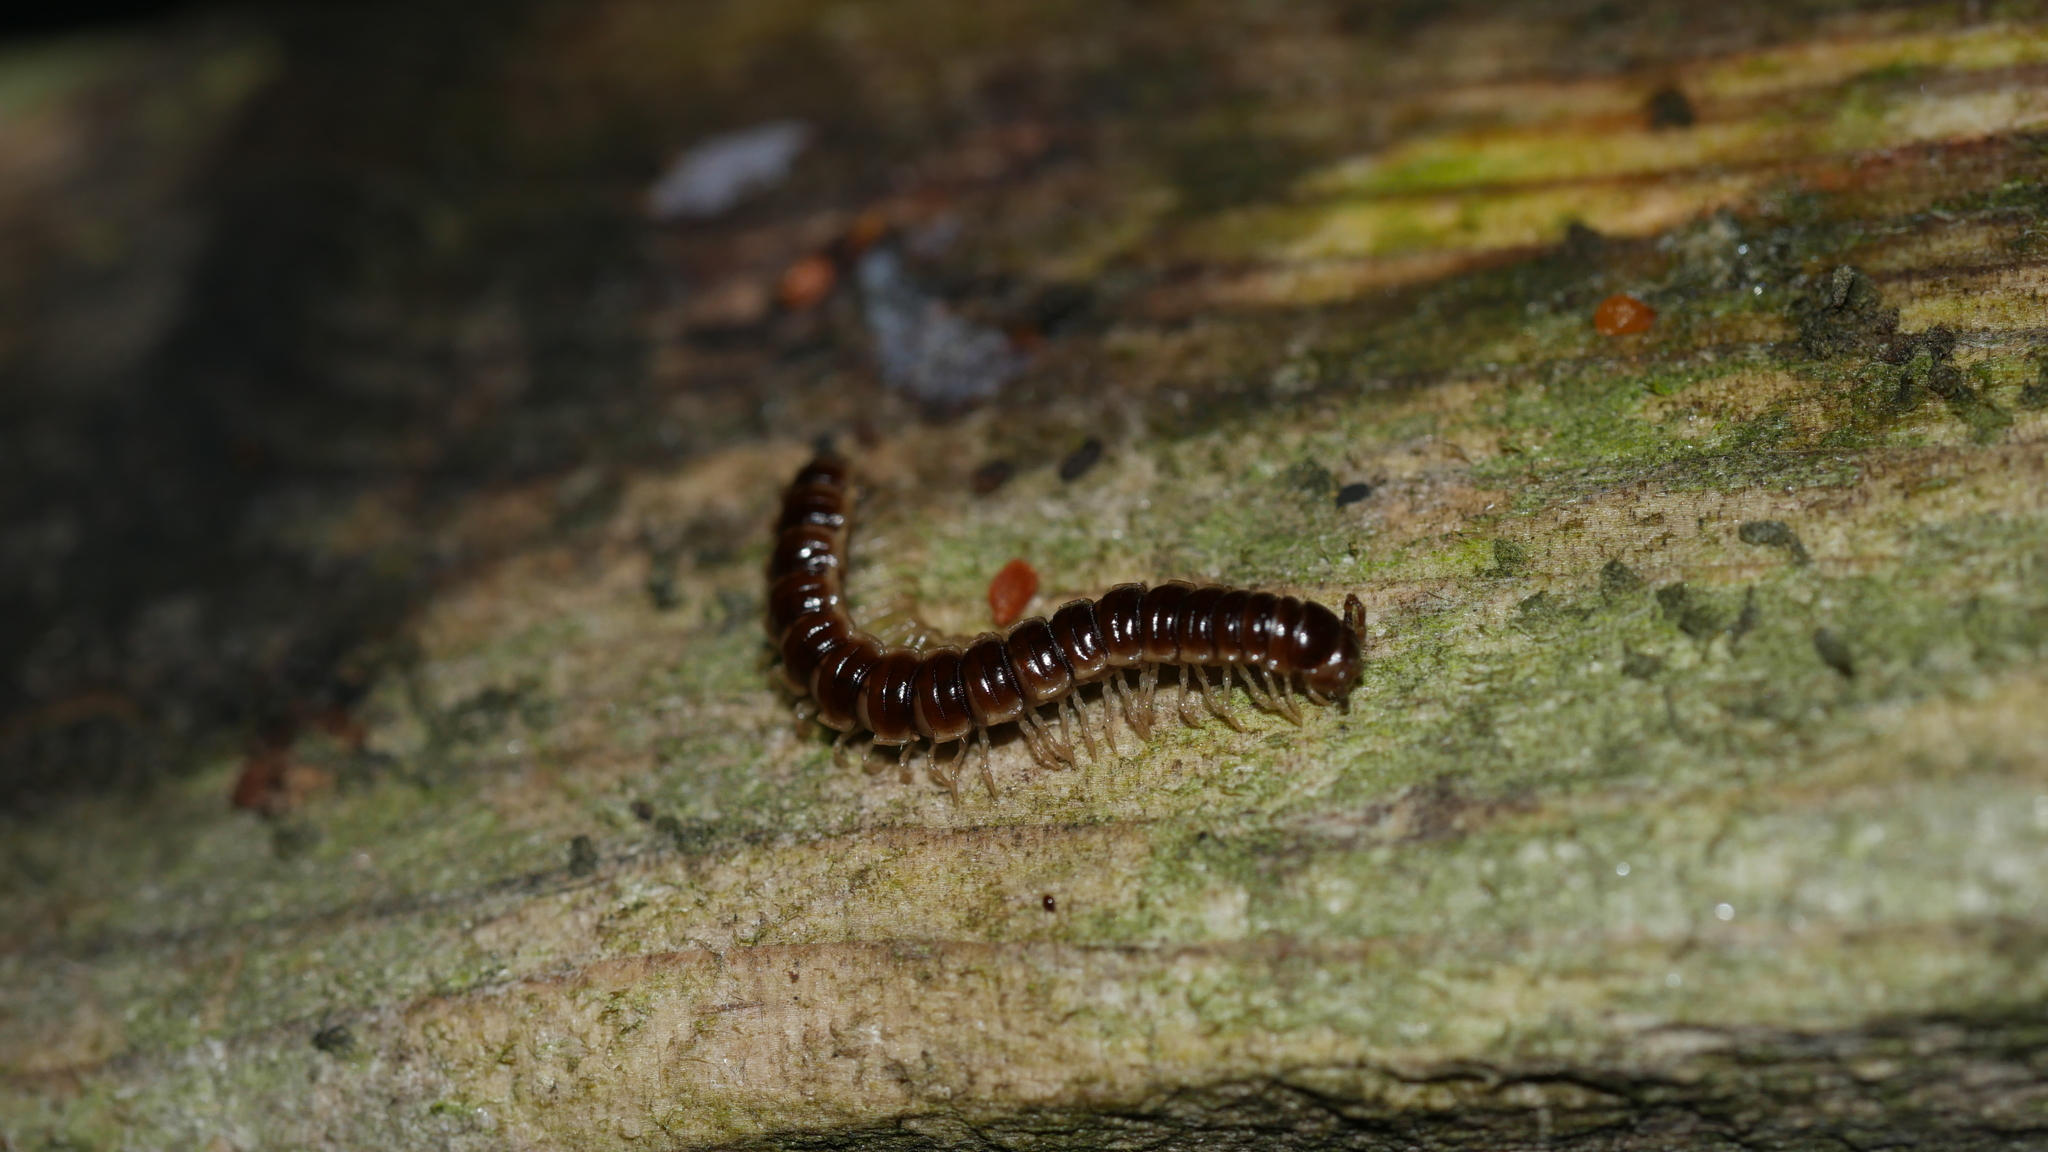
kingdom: Animalia
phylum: Arthropoda
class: Diplopoda
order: Polydesmida
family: Paradoxosomatidae
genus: Oxidus
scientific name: Oxidus gracilis
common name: Greenhouse millipede
